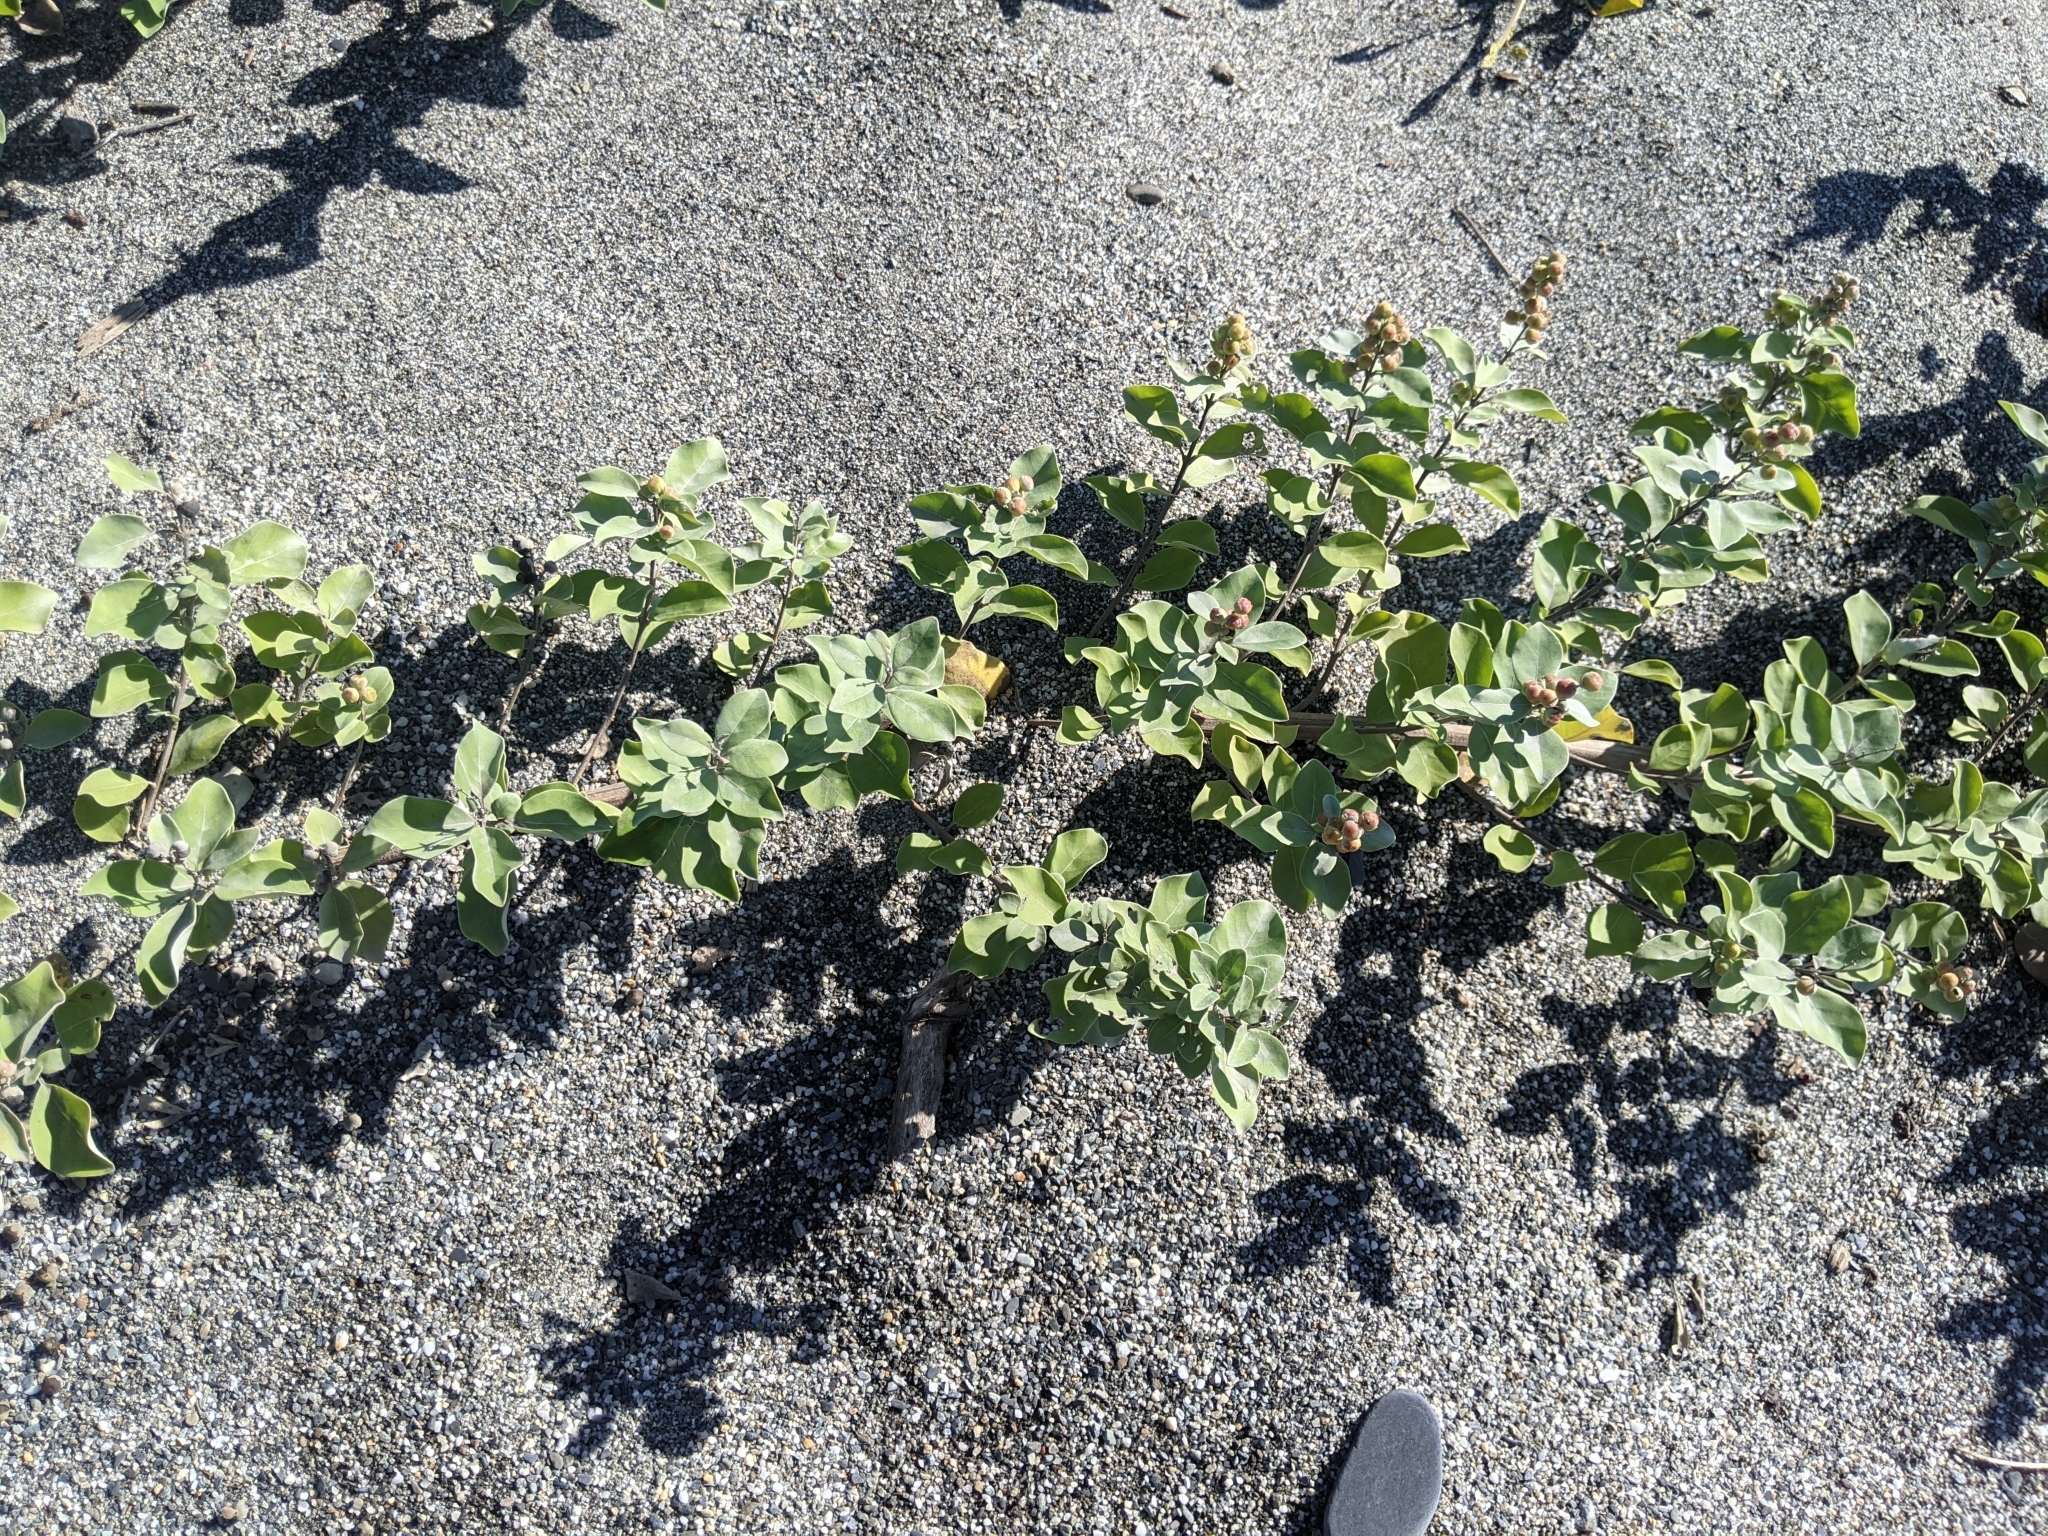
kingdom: Plantae
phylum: Tracheophyta
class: Magnoliopsida
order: Lamiales
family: Lamiaceae
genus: Vitex
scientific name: Vitex rotundifolia
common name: Beach vitex
